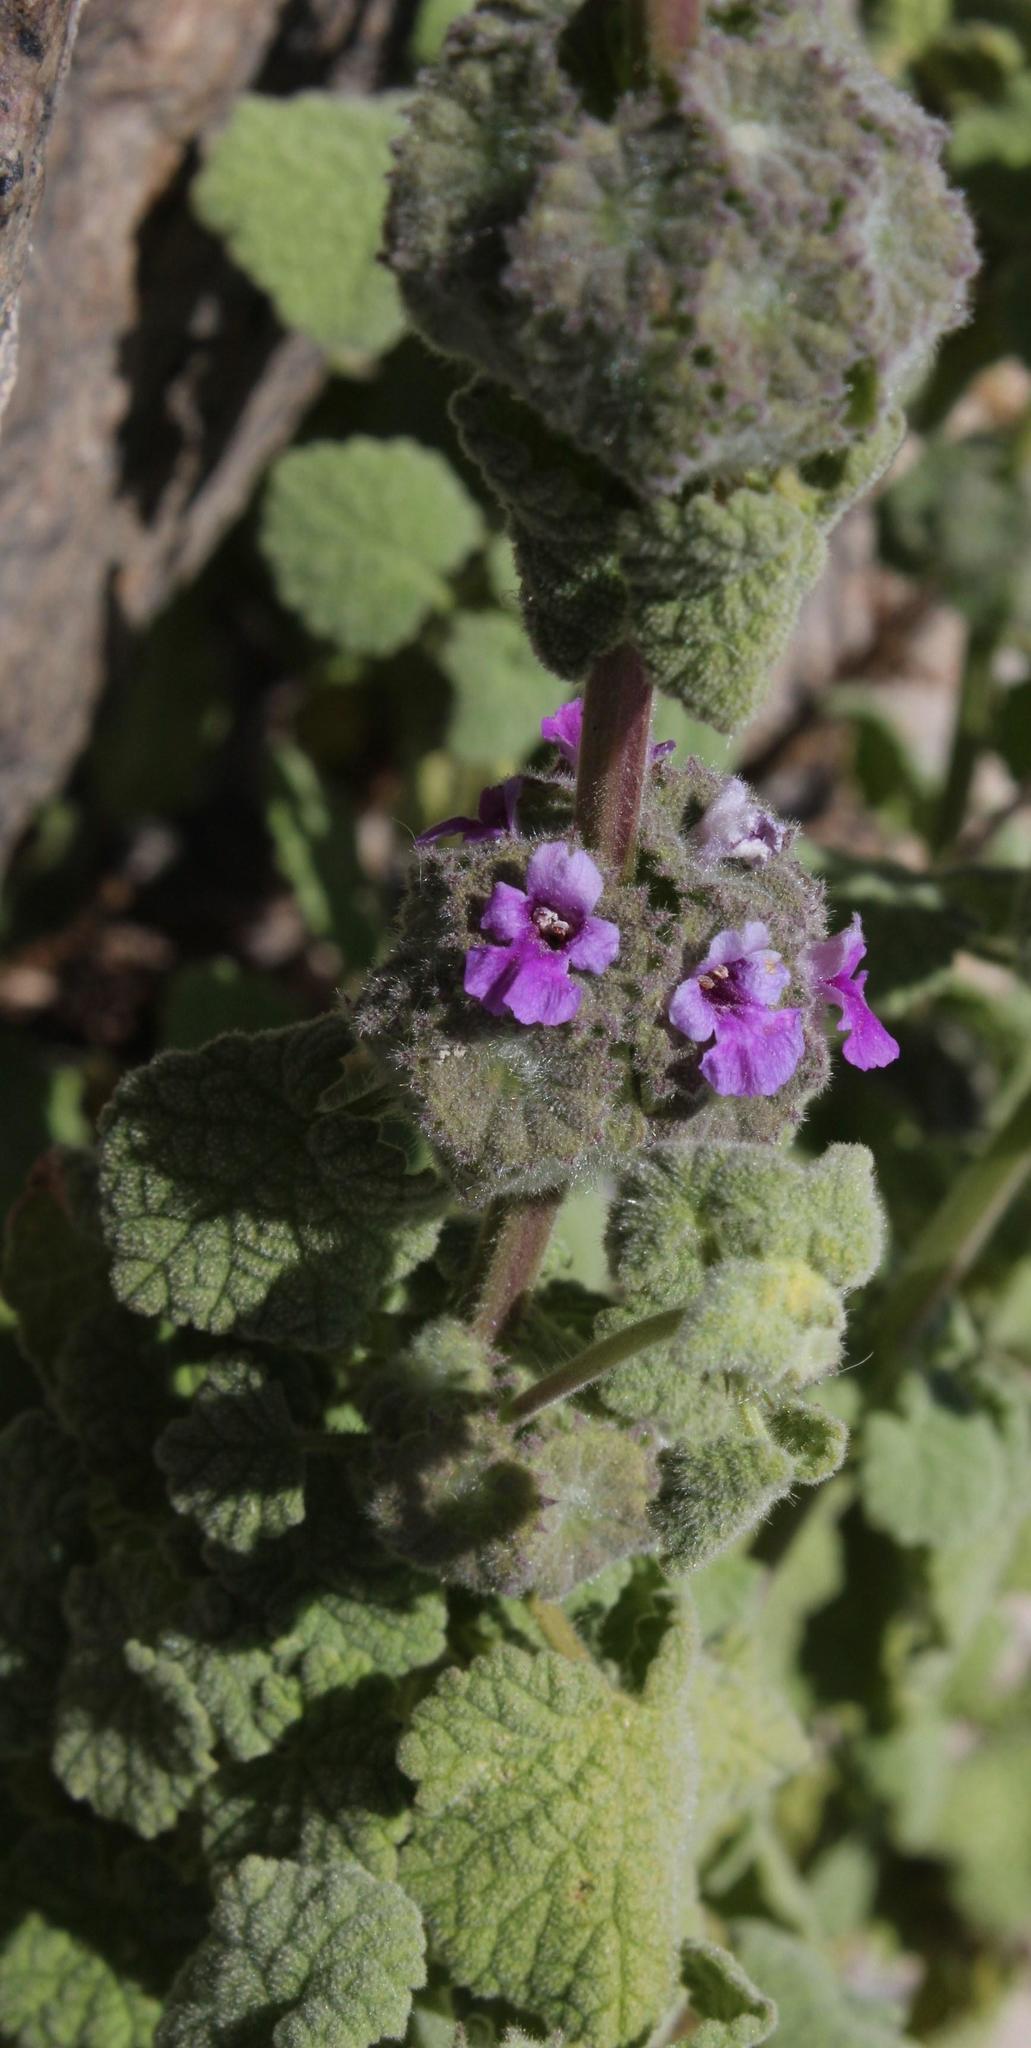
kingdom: Plantae
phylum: Tracheophyta
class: Magnoliopsida
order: Lamiales
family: Lamiaceae
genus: Pseudodictamnus
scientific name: Pseudodictamnus africanus
